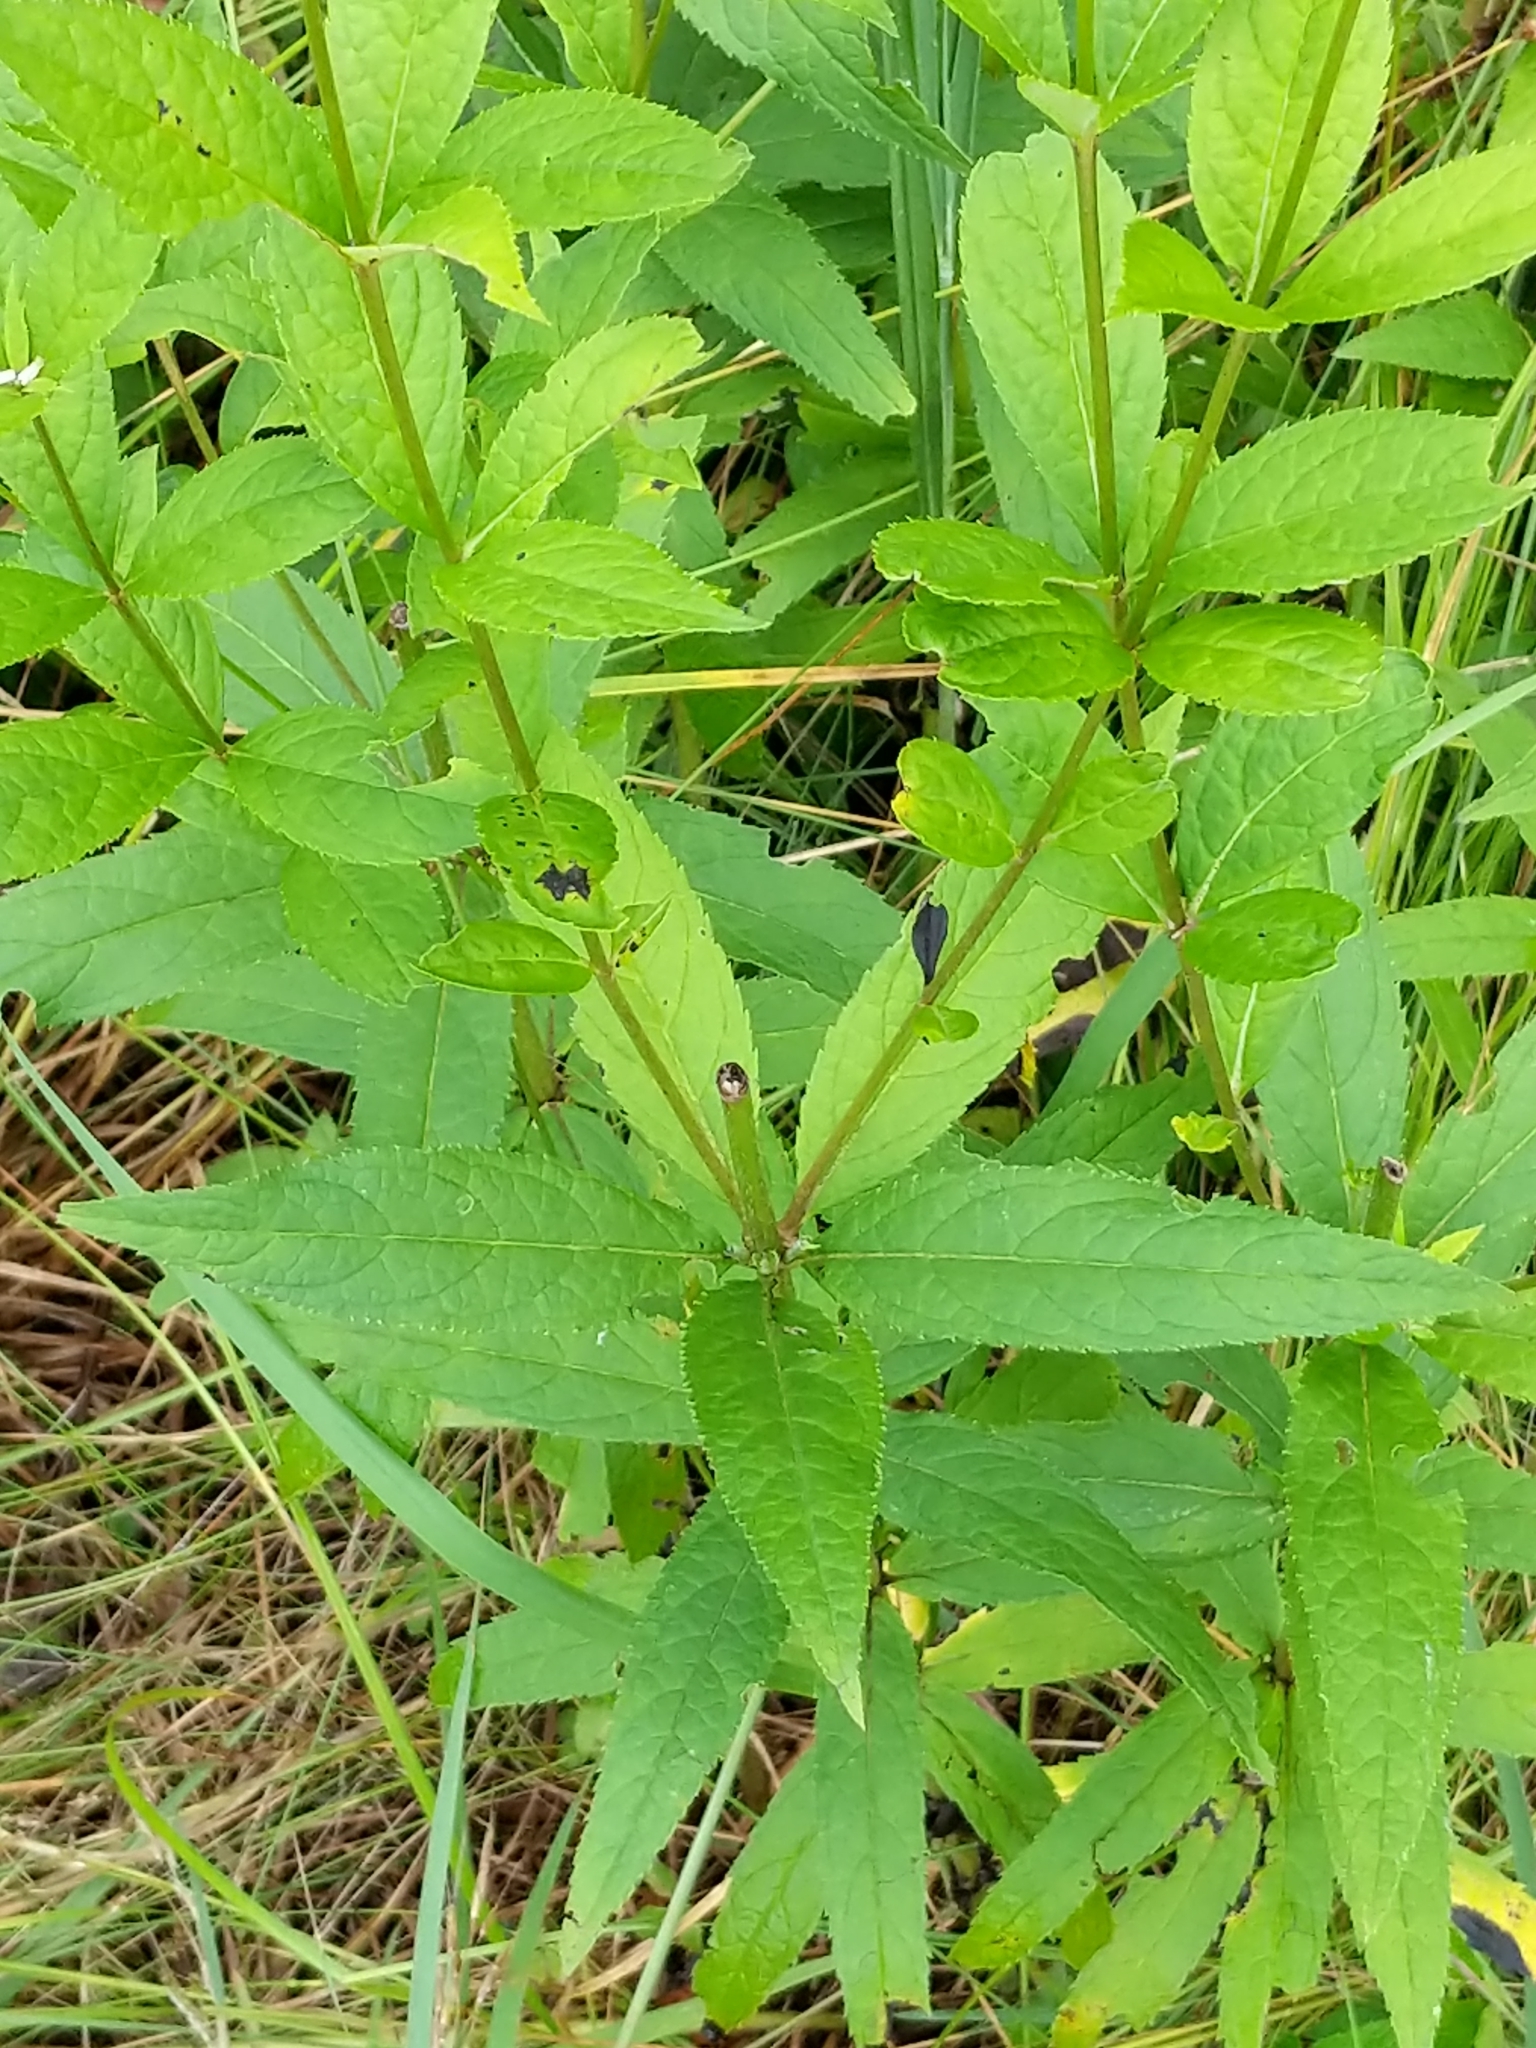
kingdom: Plantae
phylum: Tracheophyta
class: Magnoliopsida
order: Lamiales
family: Plantaginaceae
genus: Veronicastrum
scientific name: Veronicastrum virginicum
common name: Blackroot
